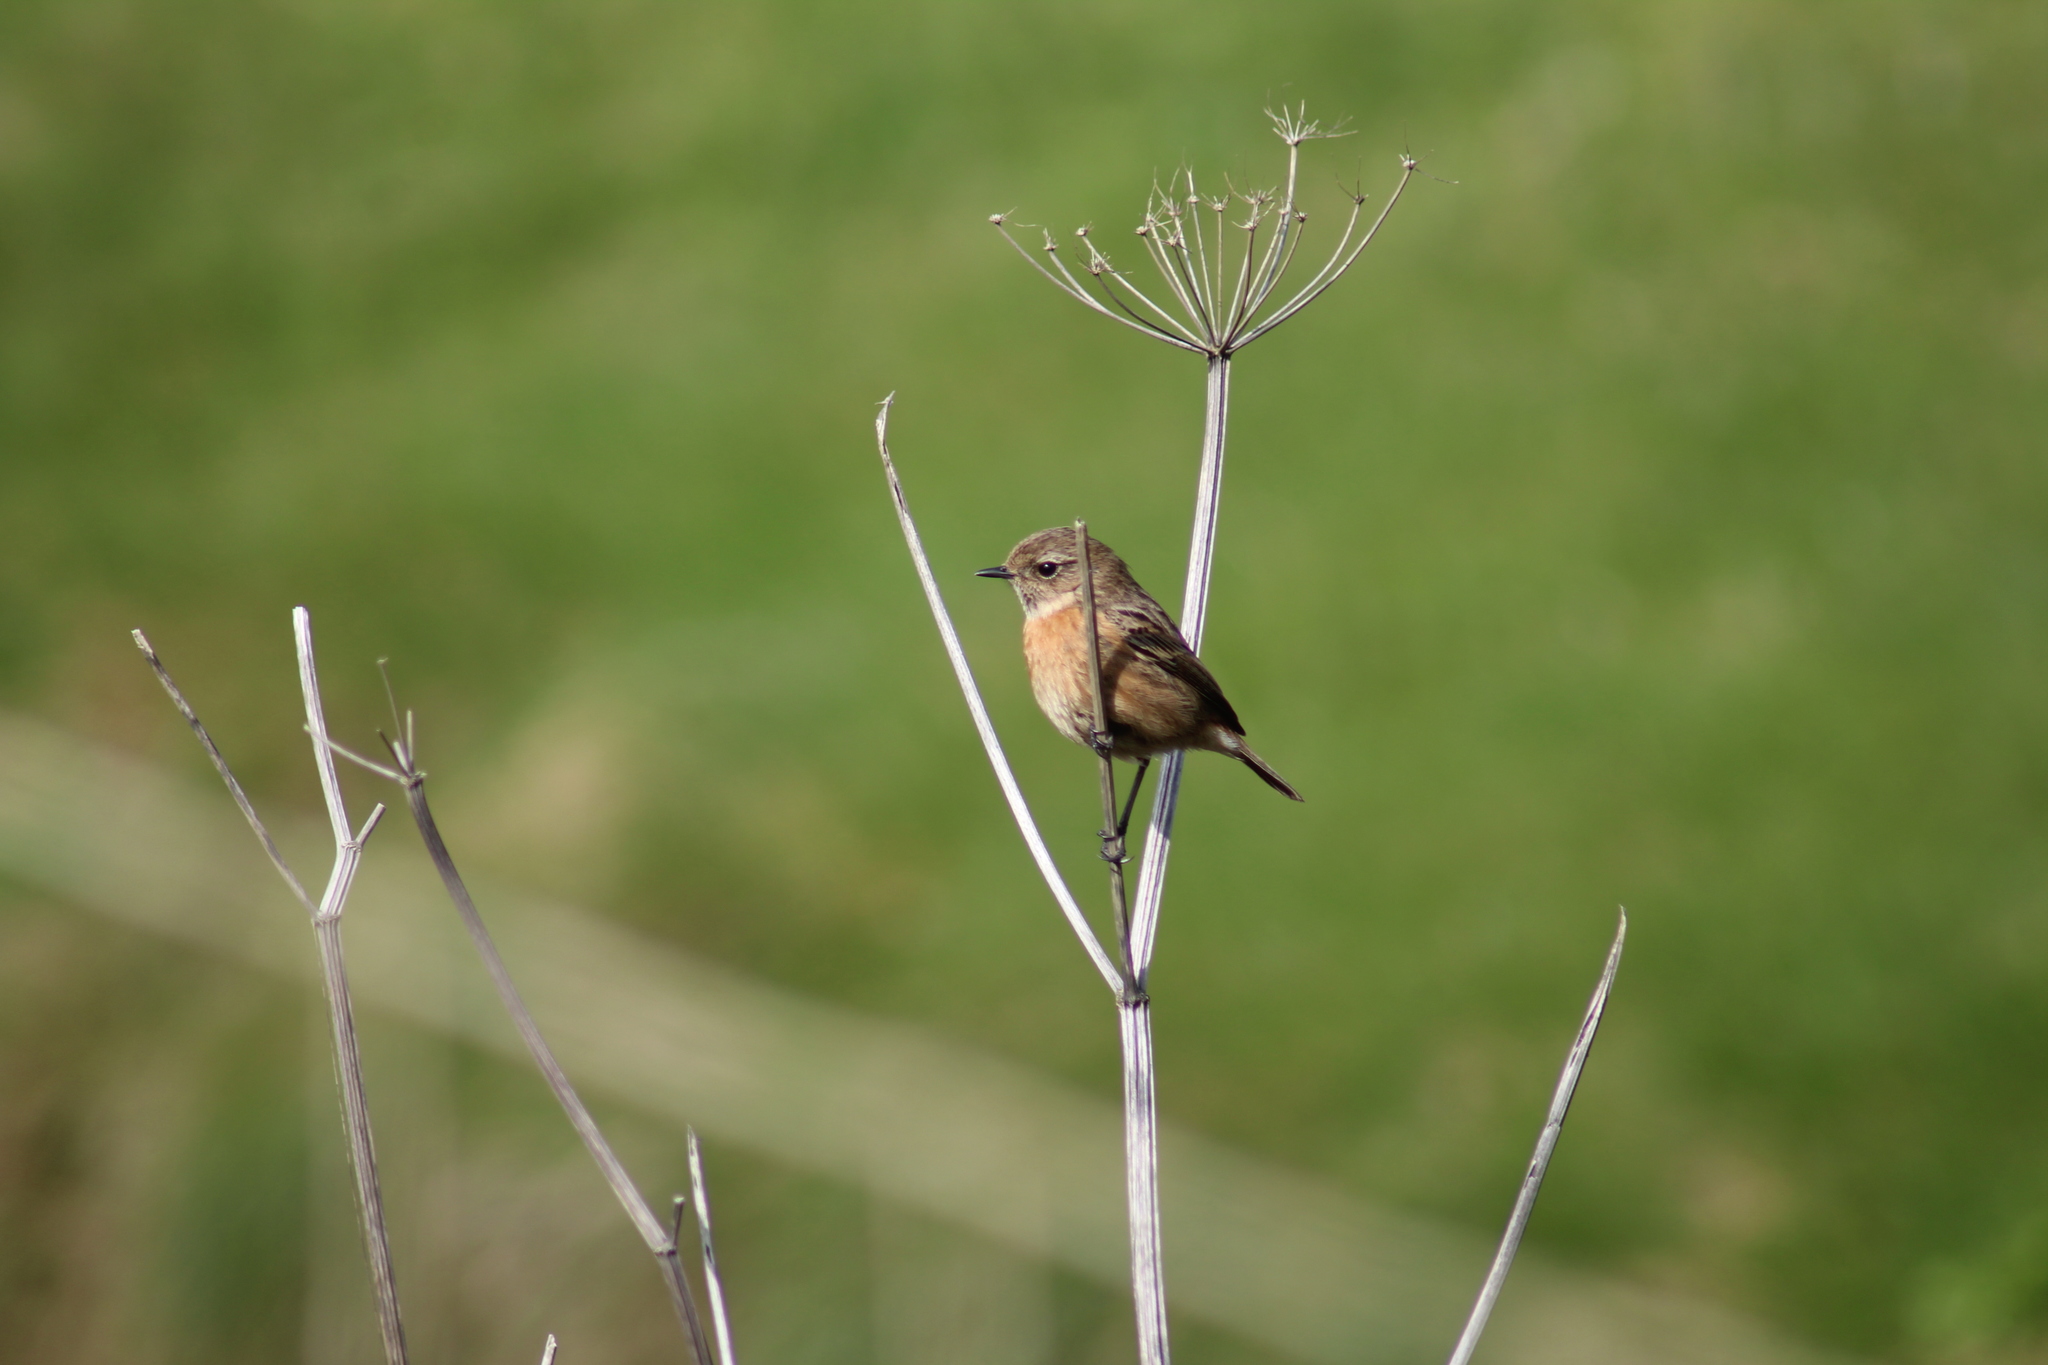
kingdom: Animalia
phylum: Chordata
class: Aves
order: Passeriformes
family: Muscicapidae
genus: Saxicola
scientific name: Saxicola rubicola
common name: European stonechat
